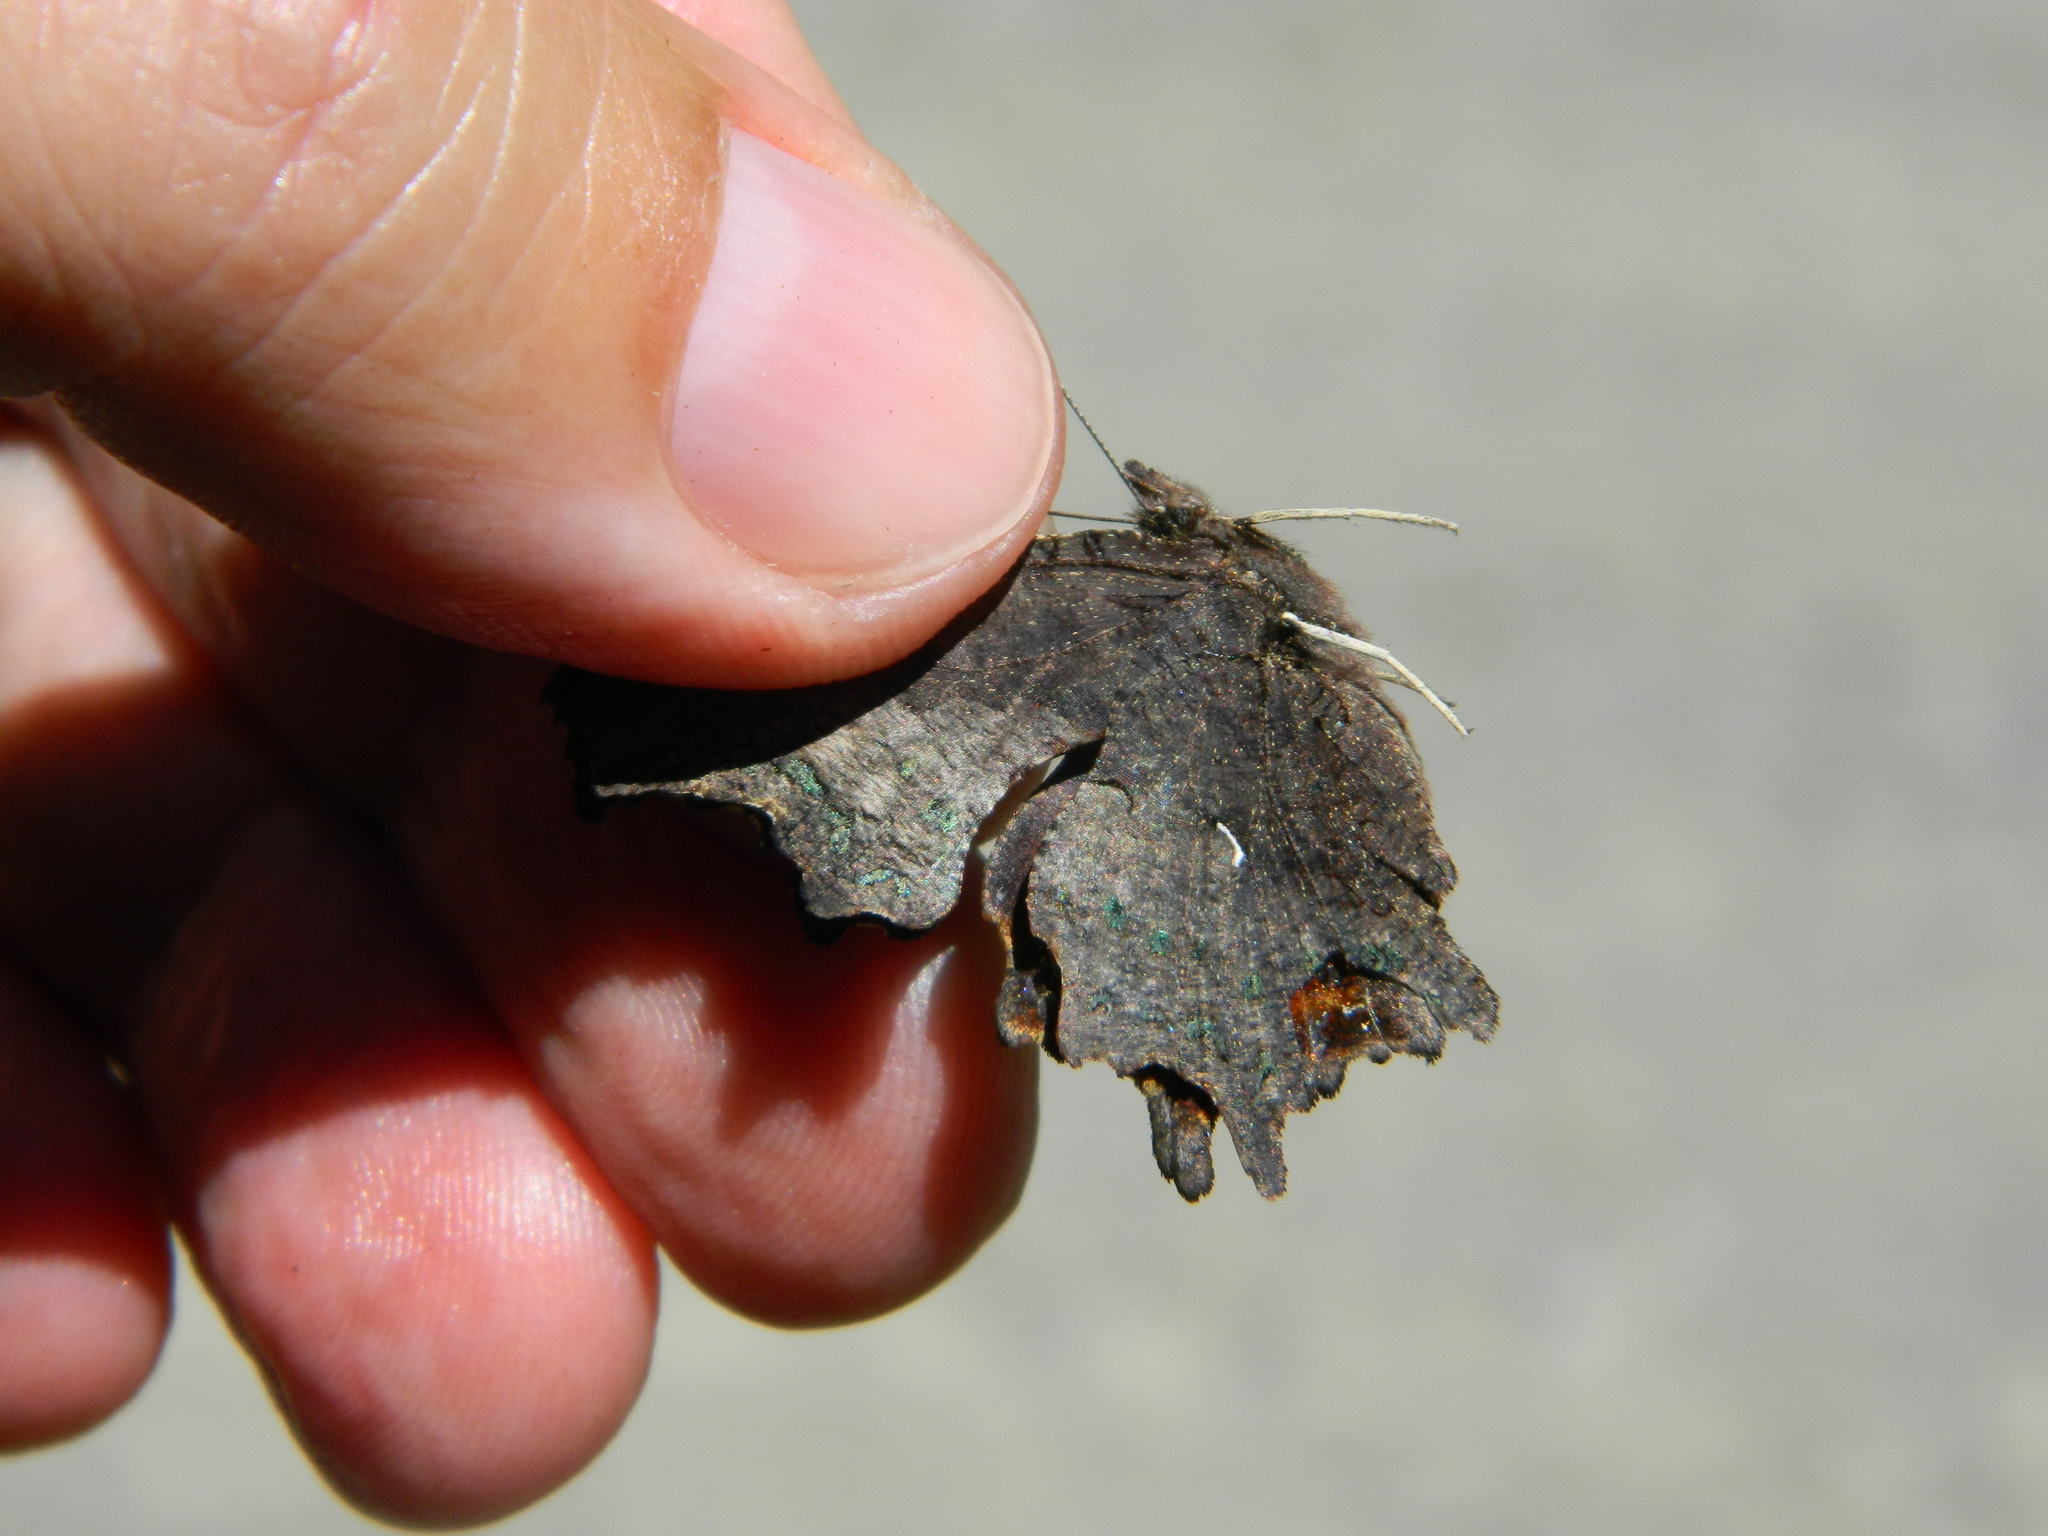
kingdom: Animalia
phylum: Arthropoda
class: Insecta
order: Lepidoptera
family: Nymphalidae
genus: Polygonia
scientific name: Polygonia faunus
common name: Green comma
